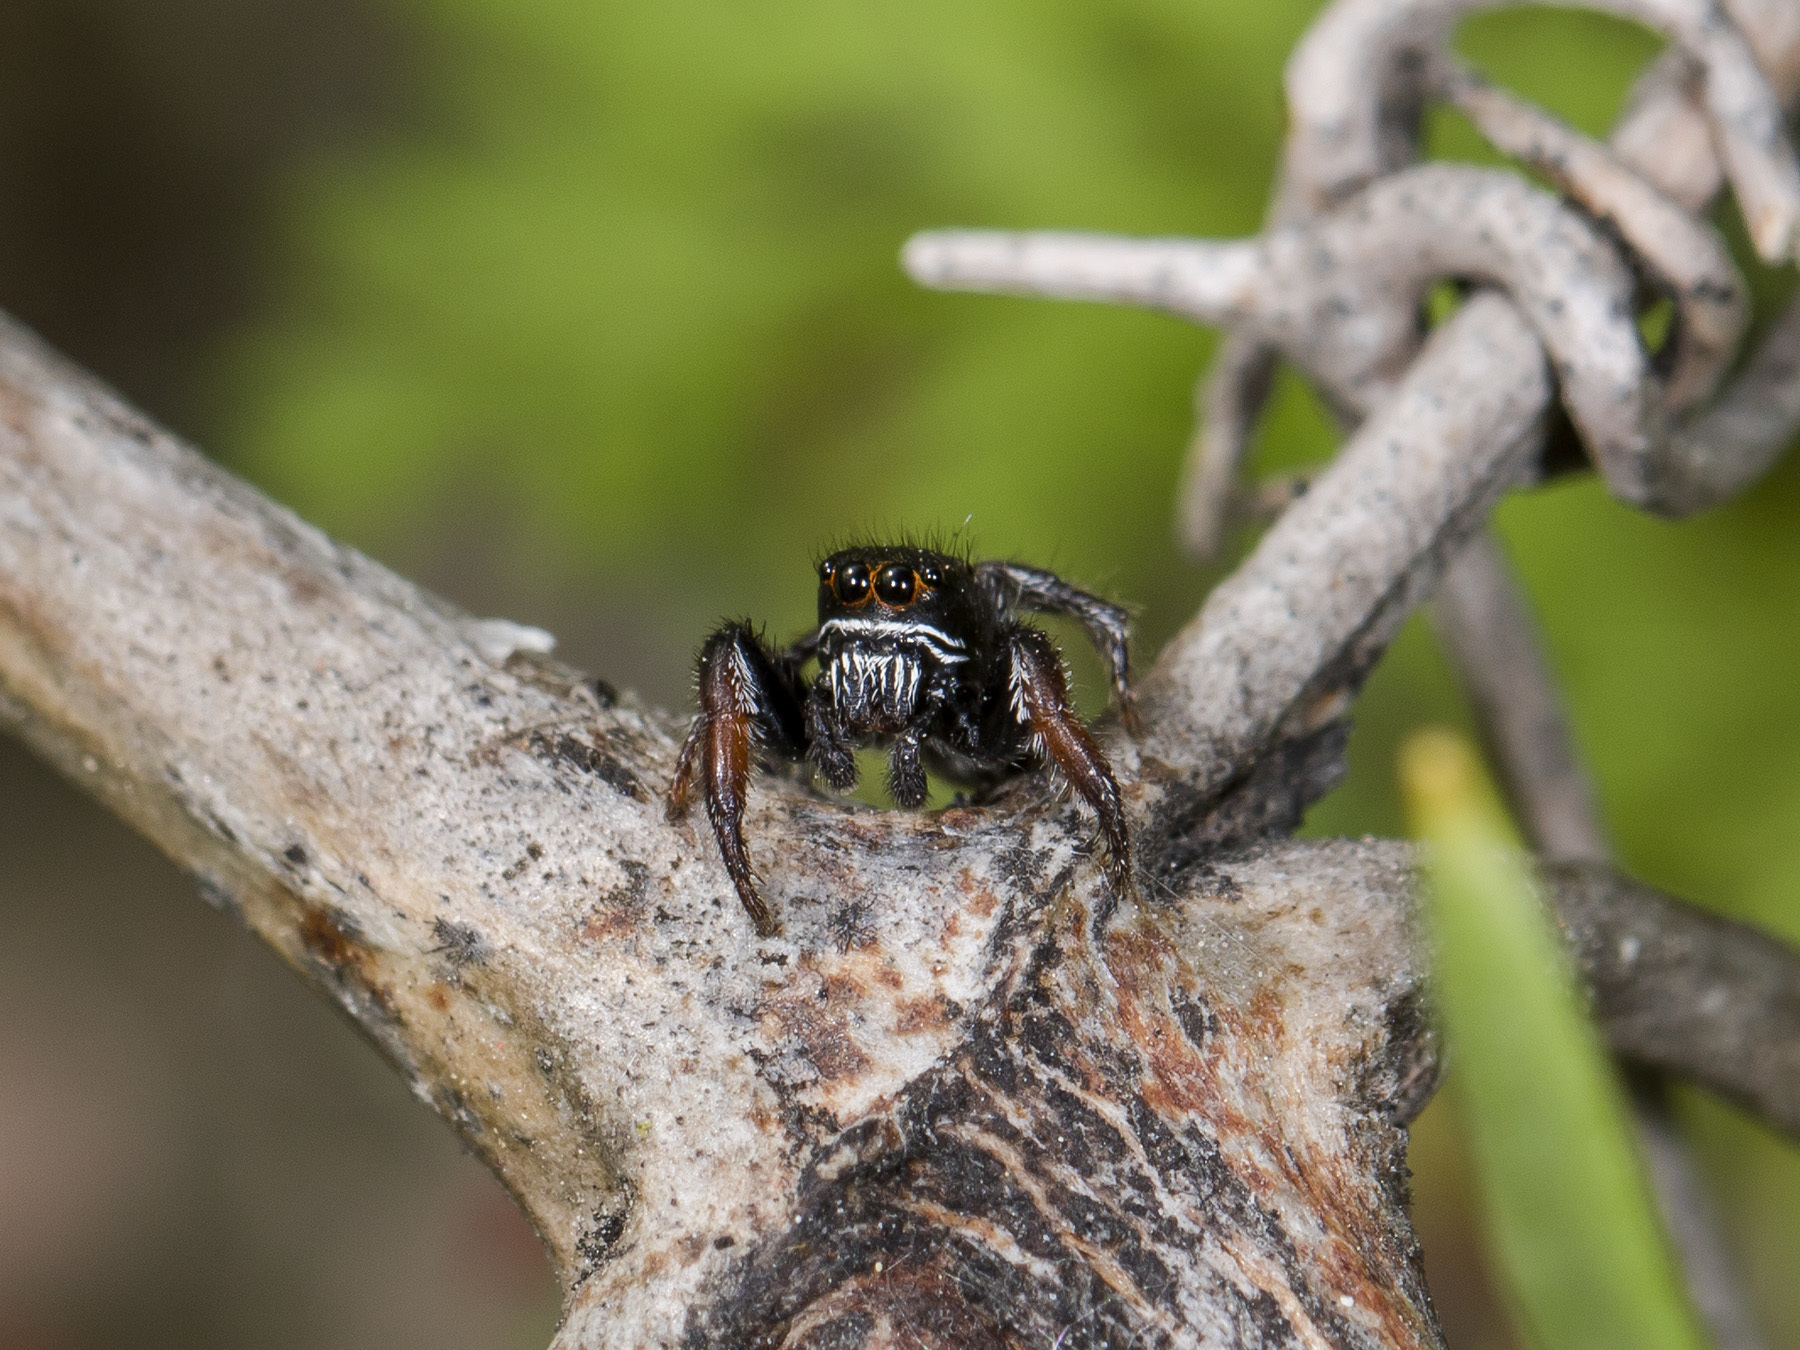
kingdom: Animalia
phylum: Arthropoda
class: Arachnida
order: Araneae
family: Salticidae
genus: Pellenes
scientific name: Pellenes allegrii
